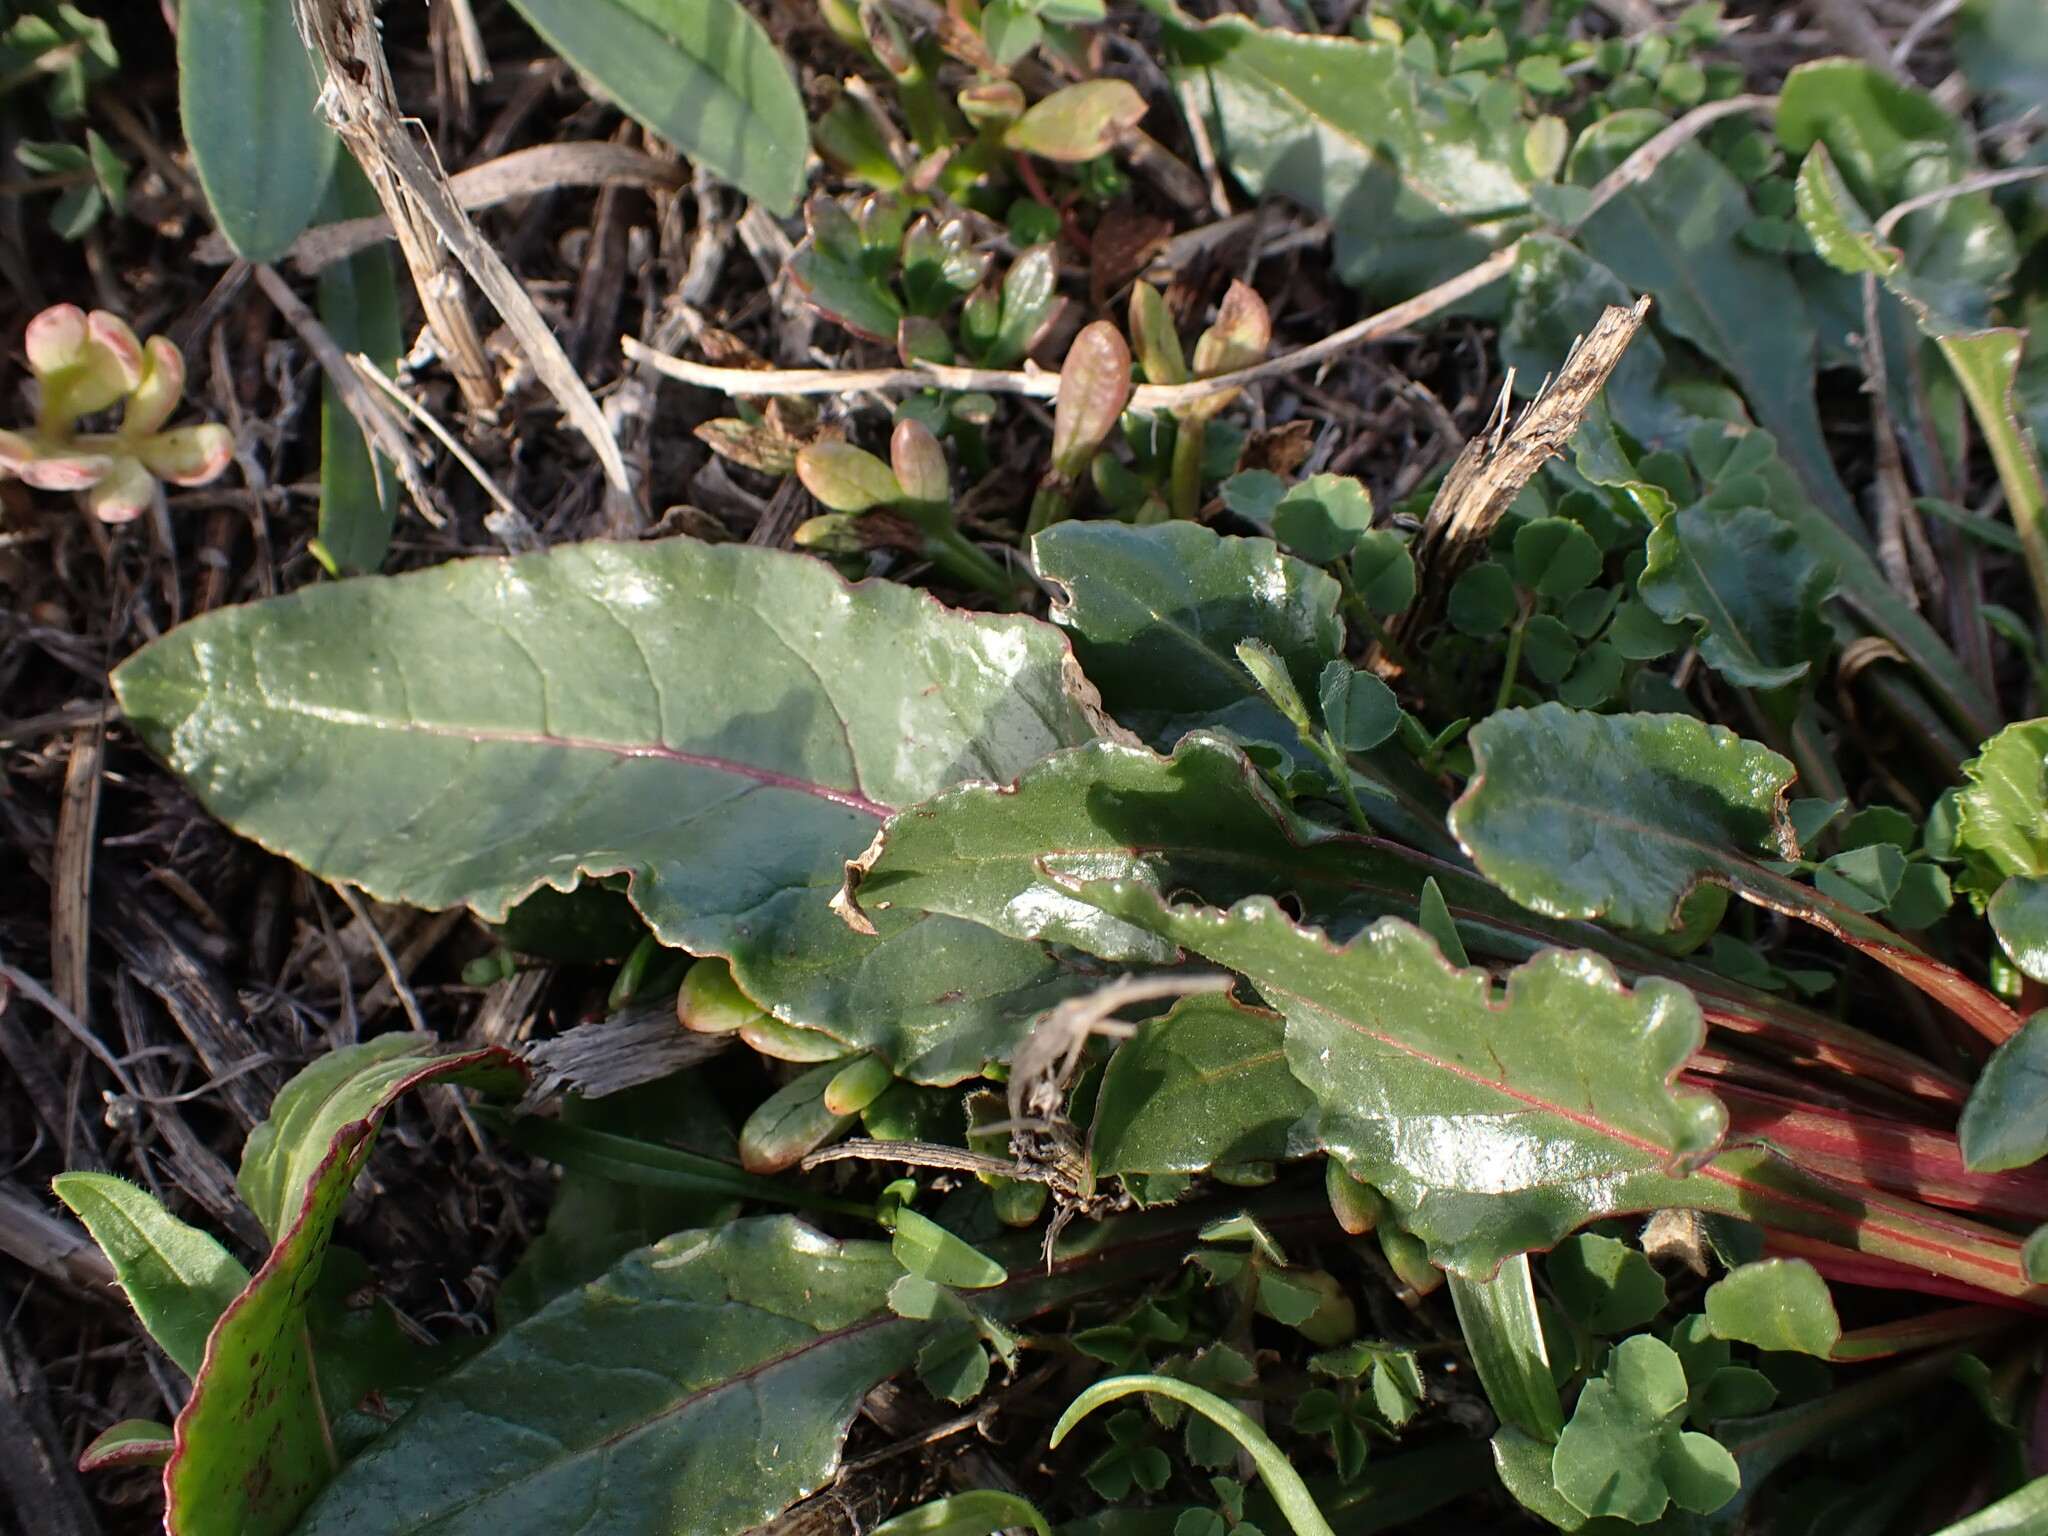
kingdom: Plantae
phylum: Tracheophyta
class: Magnoliopsida
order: Caryophyllales
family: Amaranthaceae
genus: Beta
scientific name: Beta vulgaris
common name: Beet
